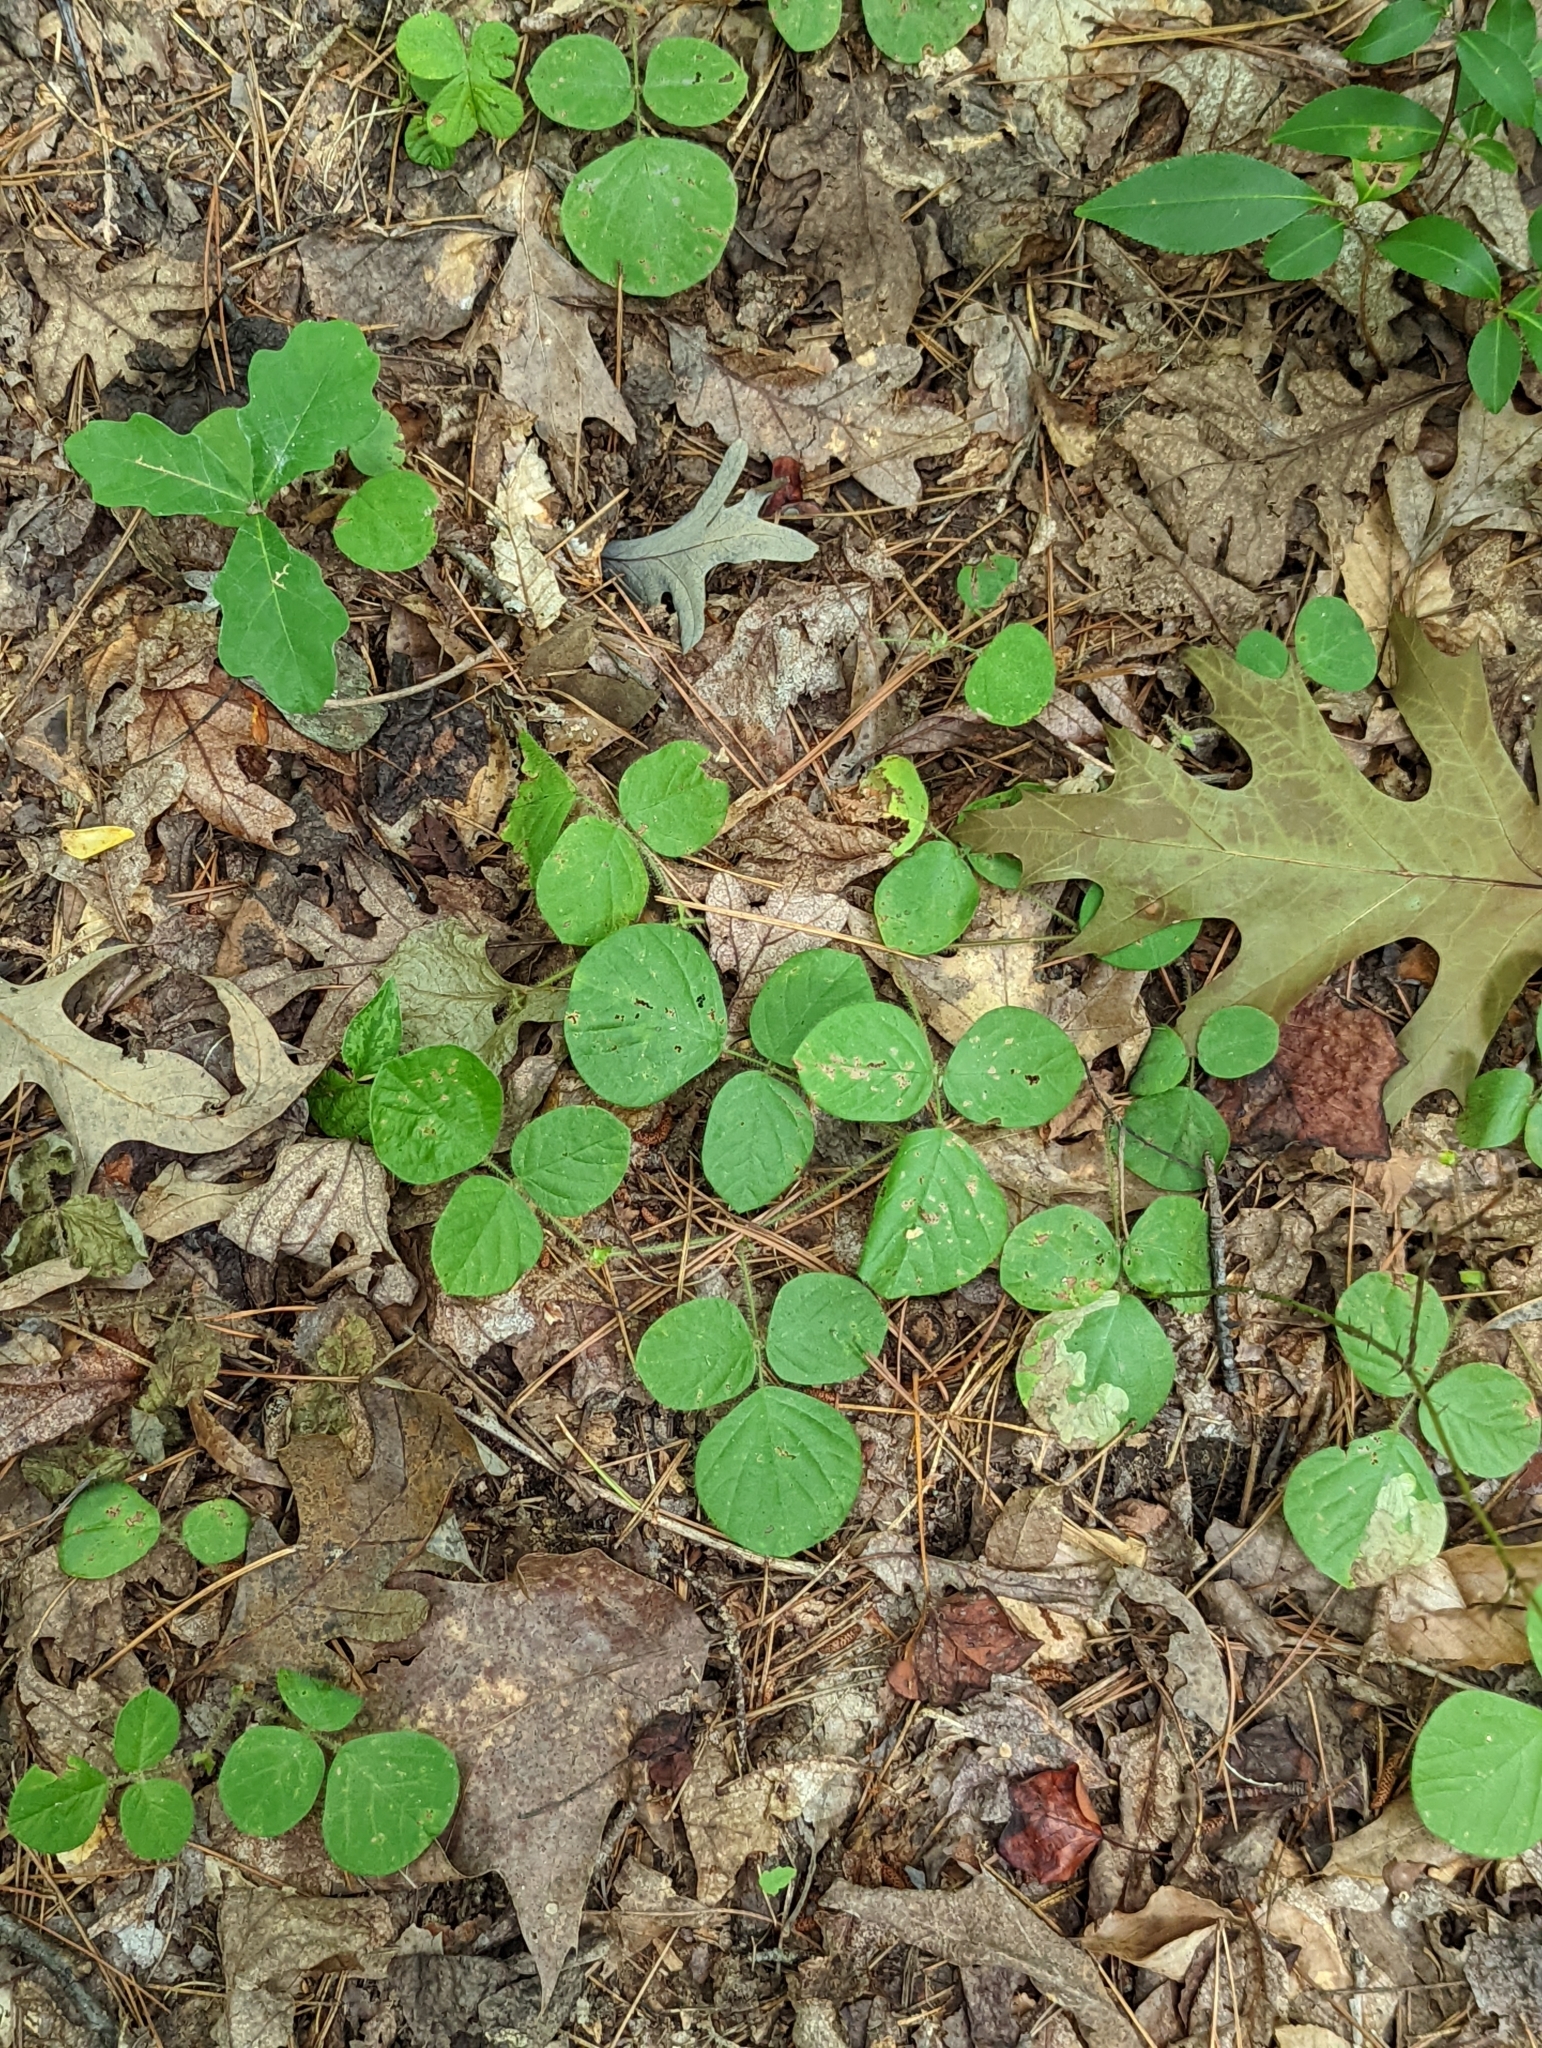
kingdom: Plantae
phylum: Tracheophyta
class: Magnoliopsida
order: Fabales
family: Fabaceae
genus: Desmodium
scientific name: Desmodium rotundifolium
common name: Dollarleaf
